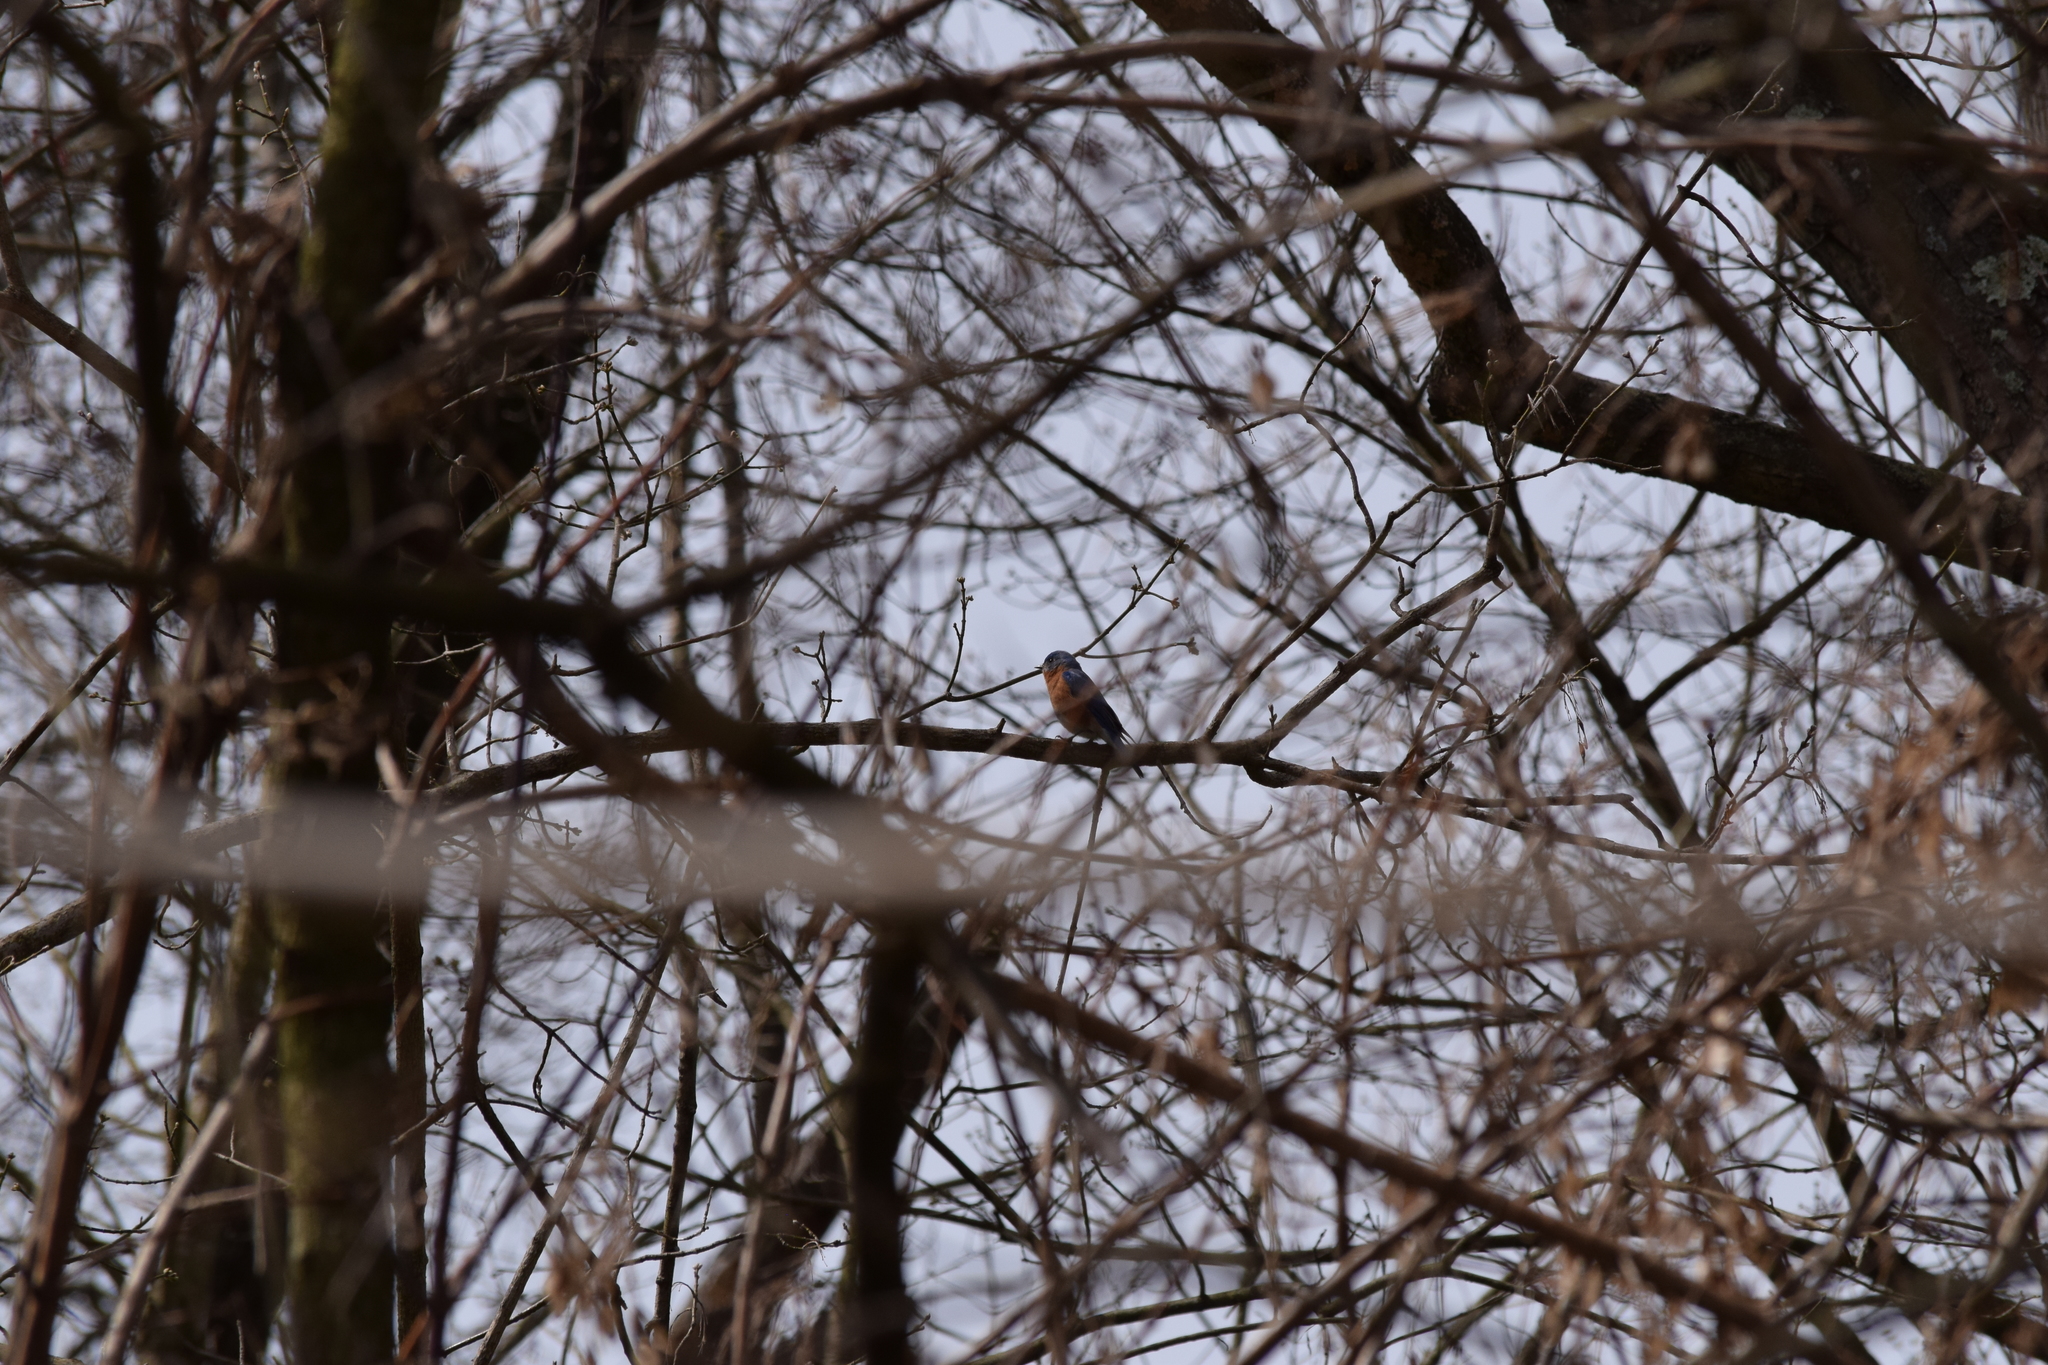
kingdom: Animalia
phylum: Chordata
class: Aves
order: Passeriformes
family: Turdidae
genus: Sialia
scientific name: Sialia sialis
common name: Eastern bluebird
